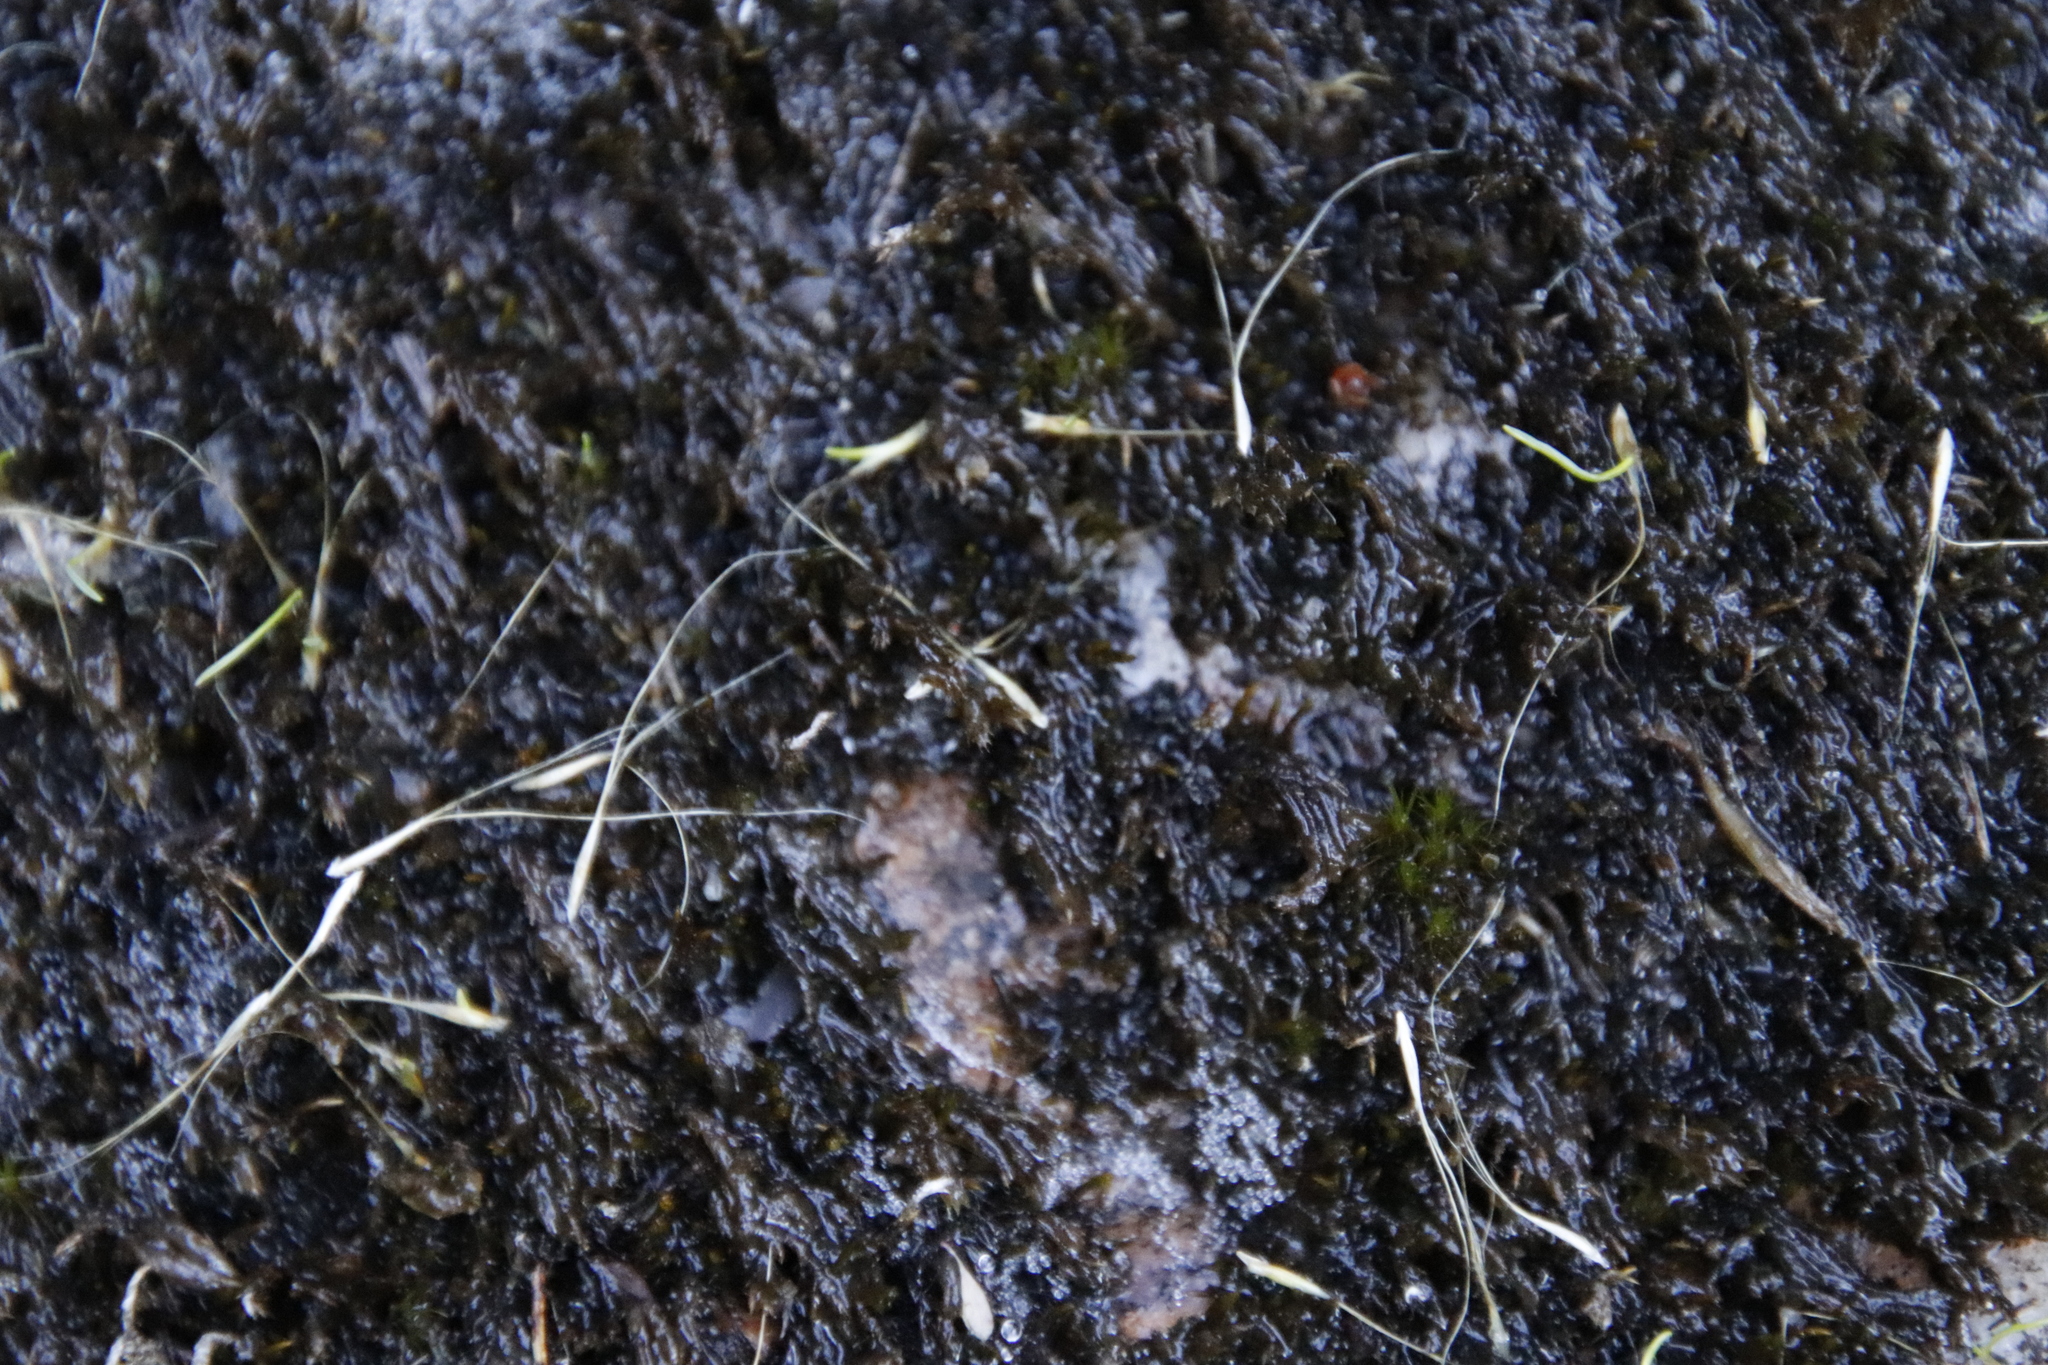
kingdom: Plantae
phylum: Bryophyta
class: Bryopsida
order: Dicranales
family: Dicranaceae
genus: Wardia
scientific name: Wardia hygrometrica
